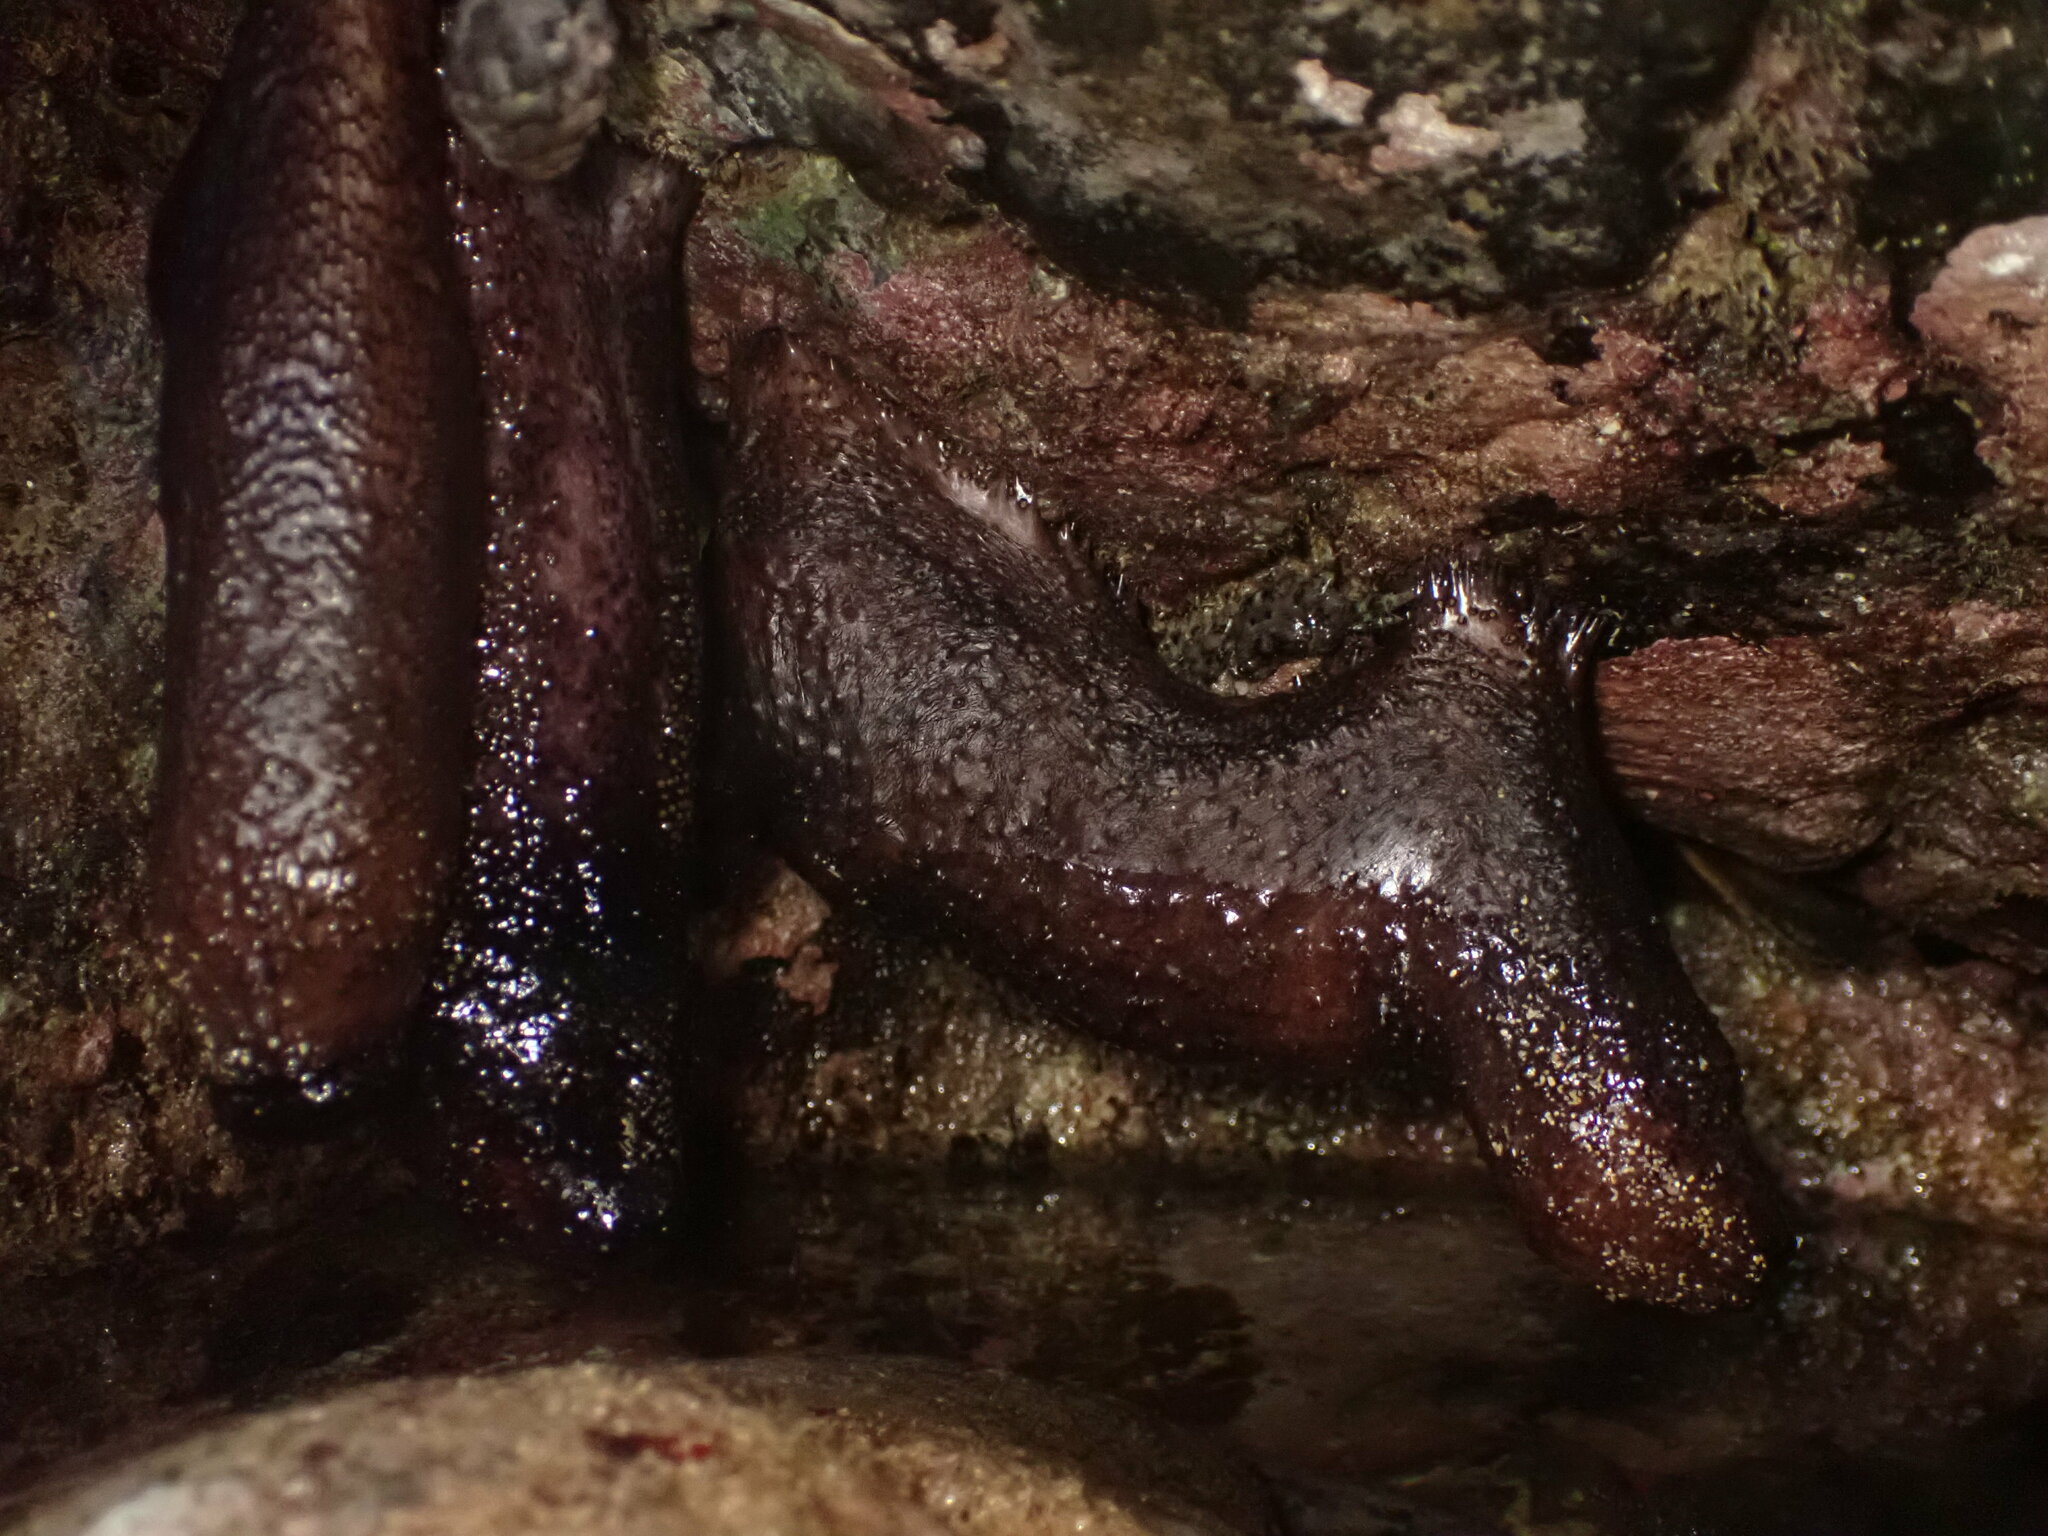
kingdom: Animalia
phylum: Echinodermata
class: Holothuroidea
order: Holothuriida
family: Holothuriidae
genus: Holothuria
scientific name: Holothuria cinerascens
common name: Ashy sea cucumber
